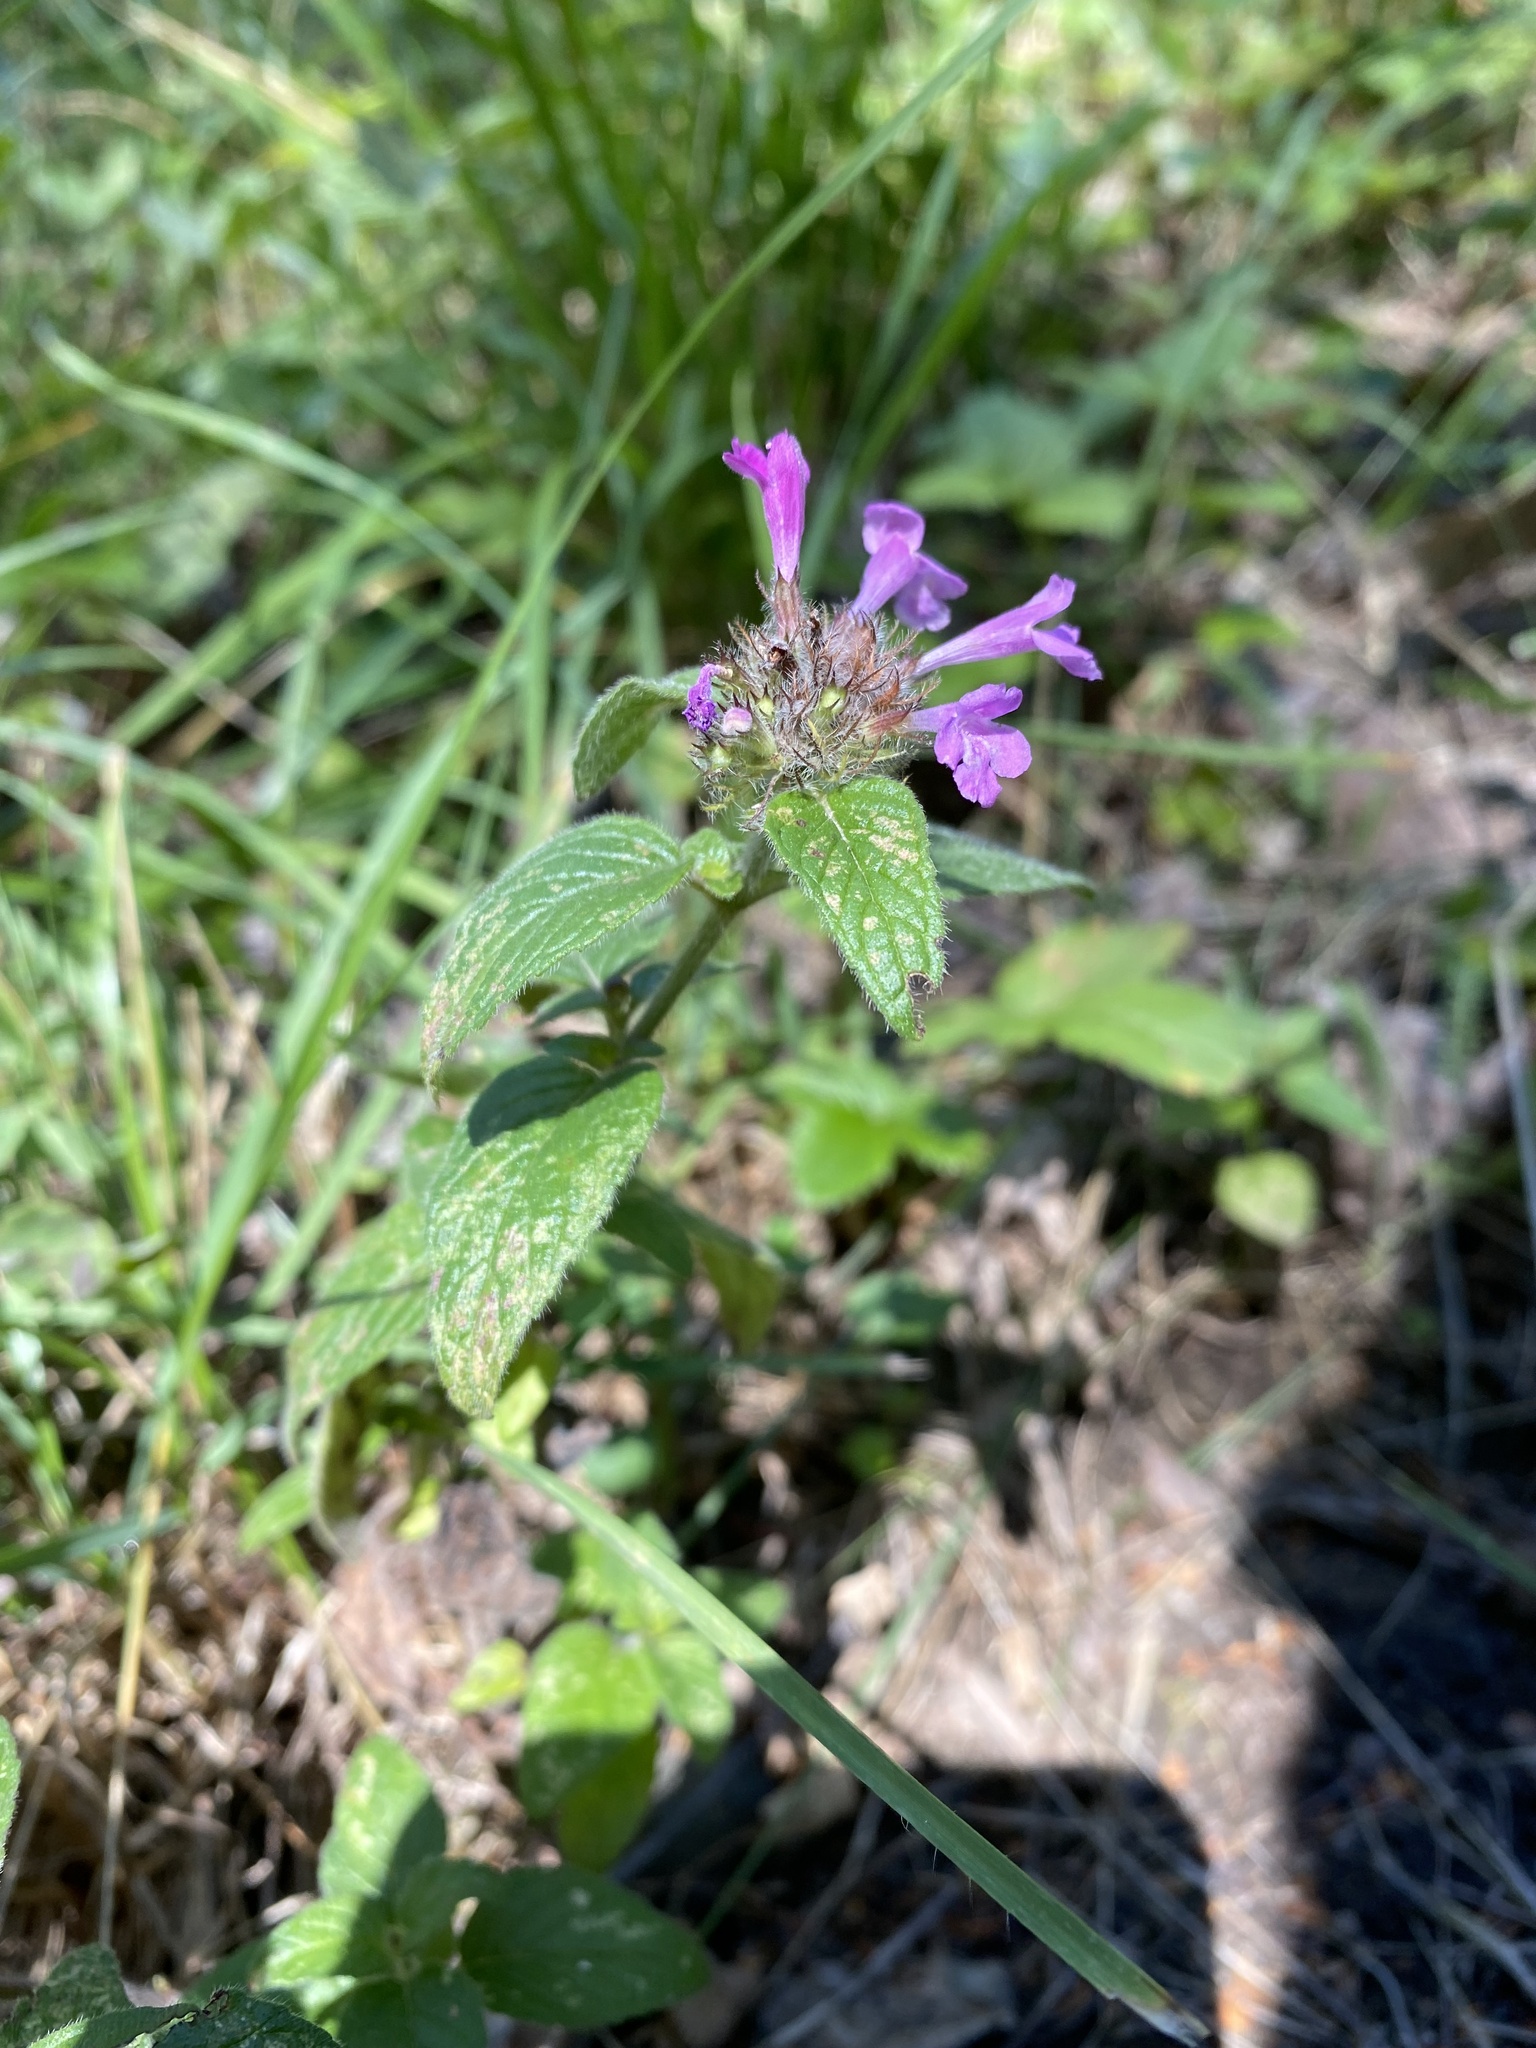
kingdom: Plantae
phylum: Tracheophyta
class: Magnoliopsida
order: Lamiales
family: Lamiaceae
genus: Clinopodium
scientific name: Clinopodium vulgare
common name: Wild basil
